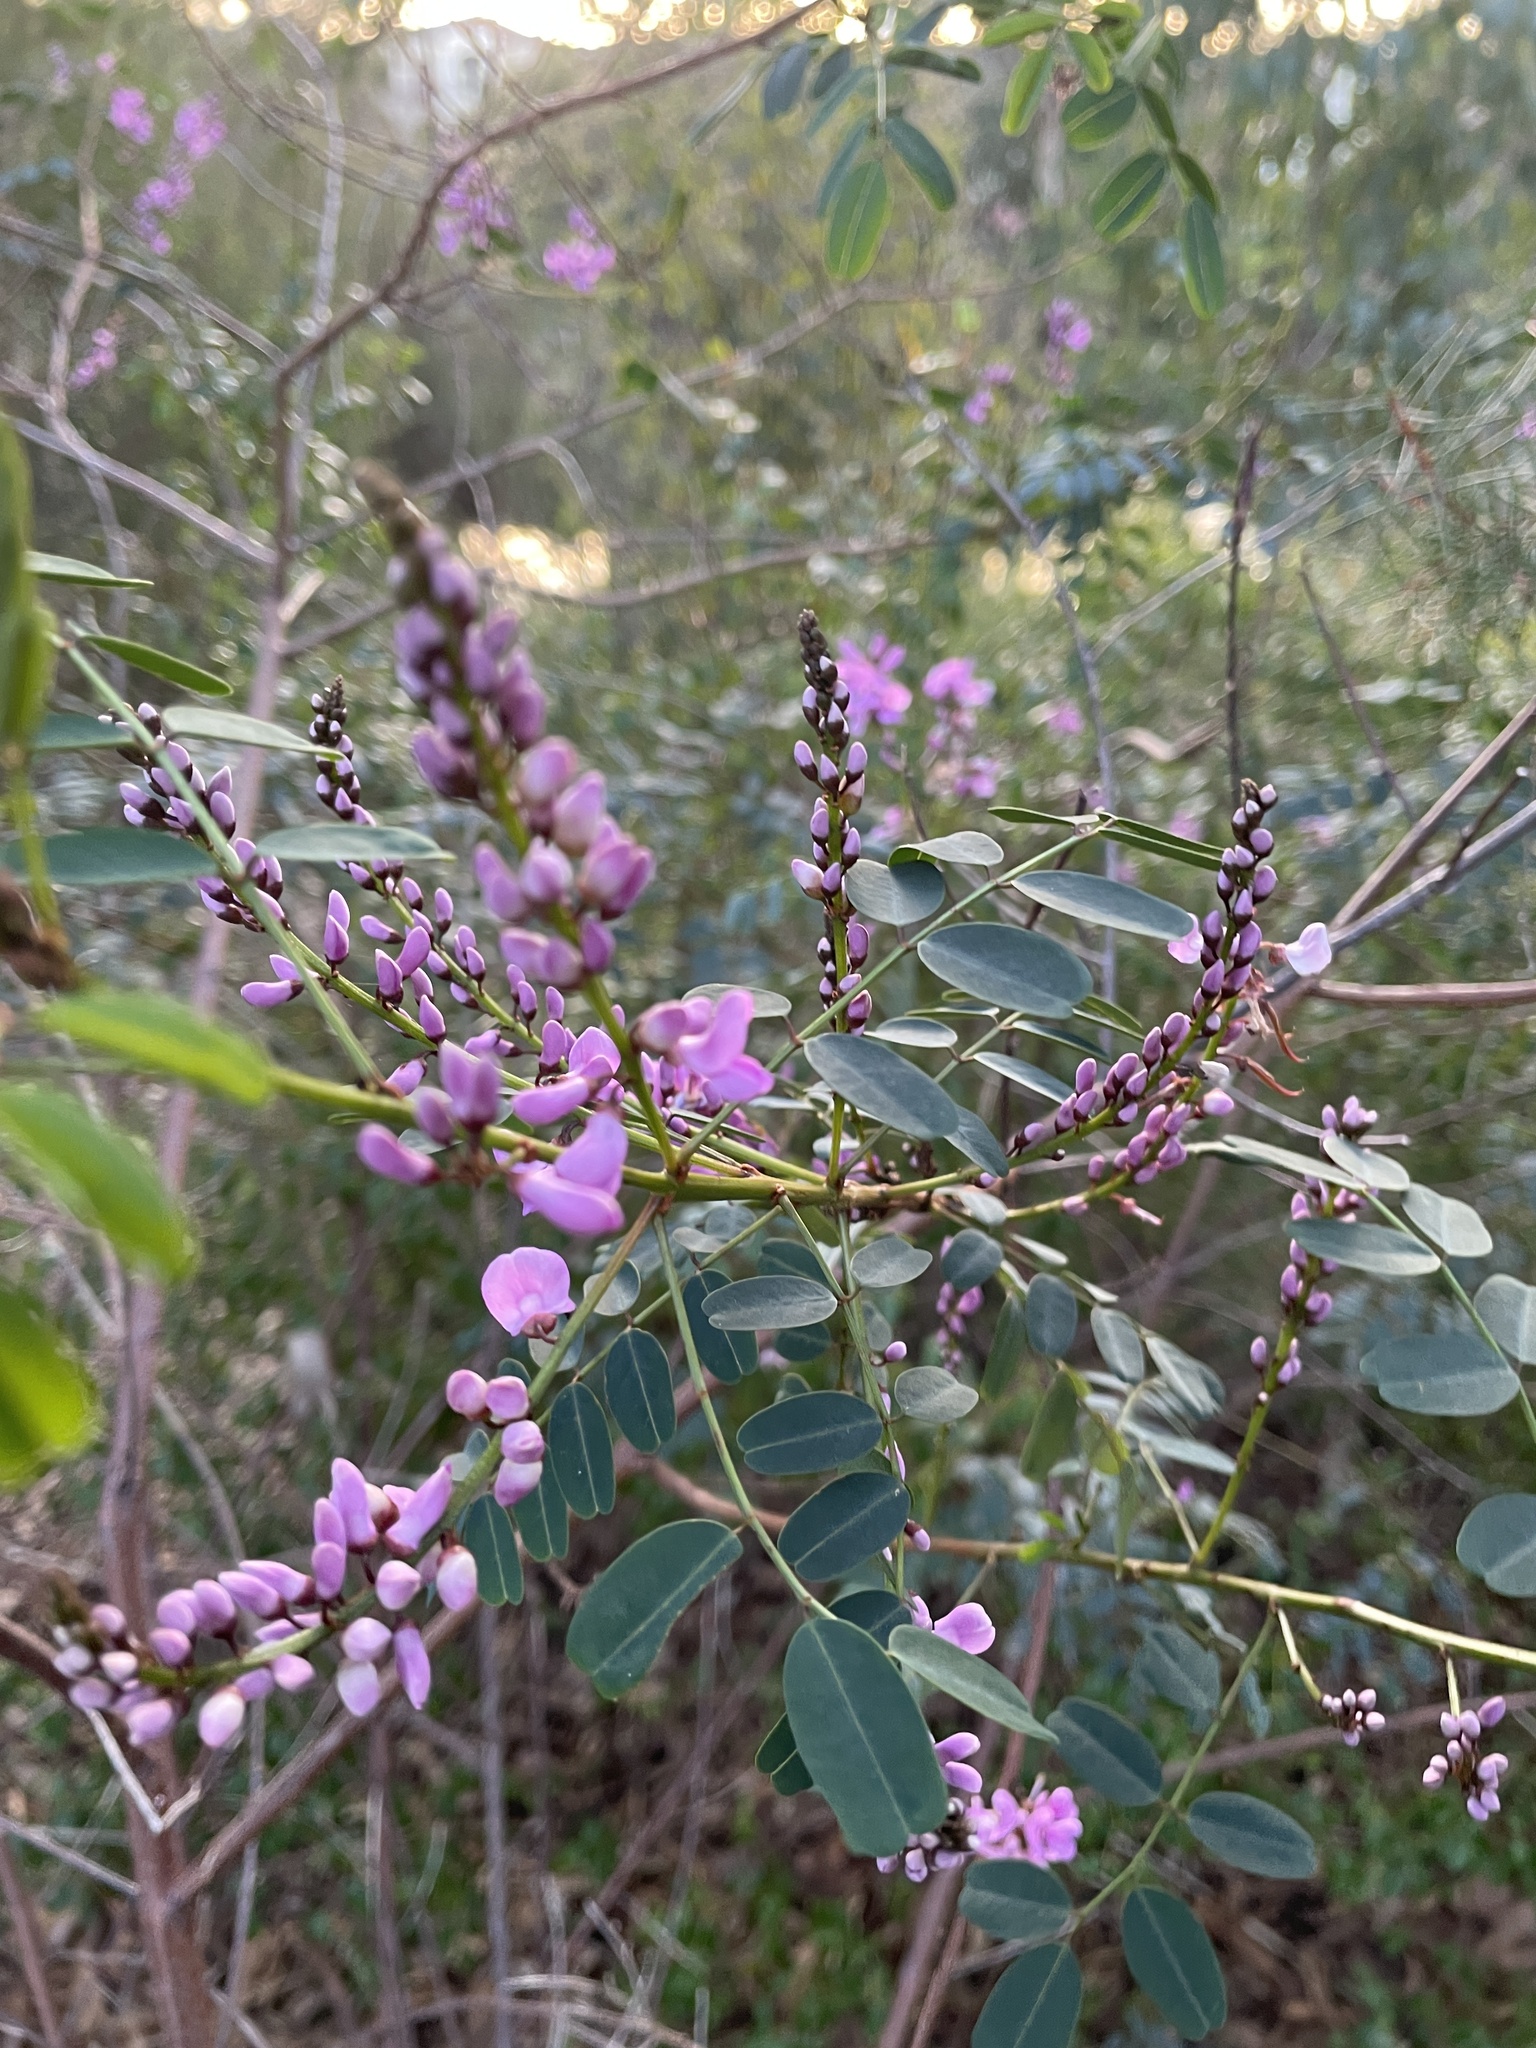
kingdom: Plantae
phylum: Tracheophyta
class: Magnoliopsida
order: Fabales
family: Fabaceae
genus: Indigofera
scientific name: Indigofera australis
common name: Australian indigo
